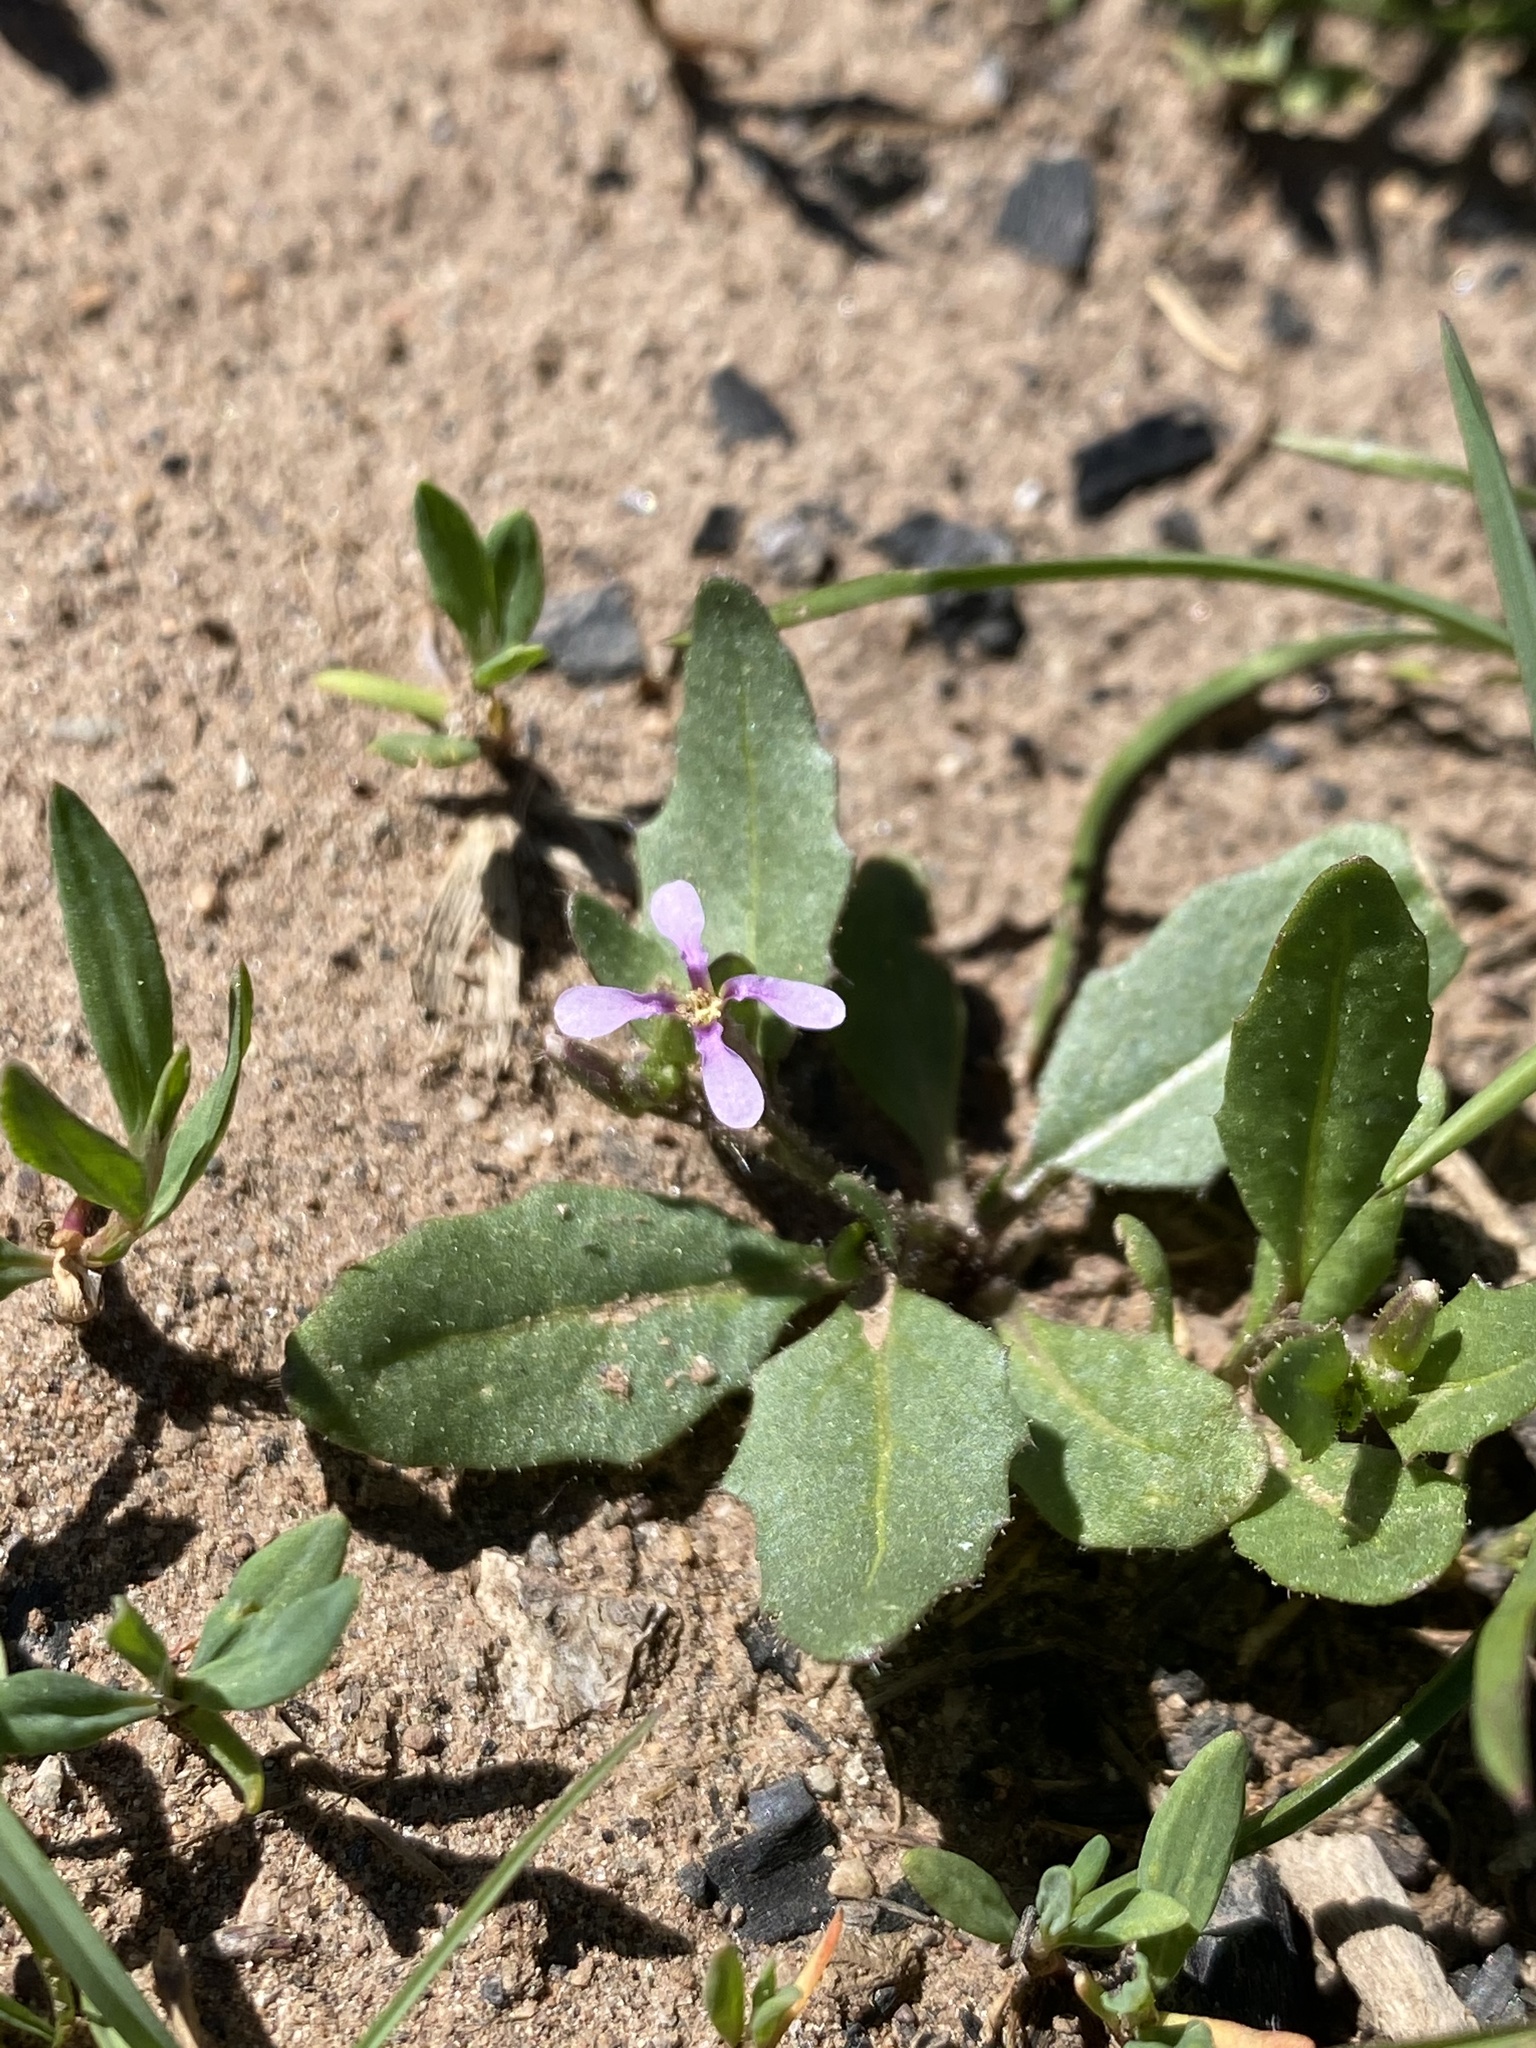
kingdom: Plantae
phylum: Tracheophyta
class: Magnoliopsida
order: Brassicales
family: Brassicaceae
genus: Chorispora
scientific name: Chorispora tenella
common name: Crossflower
